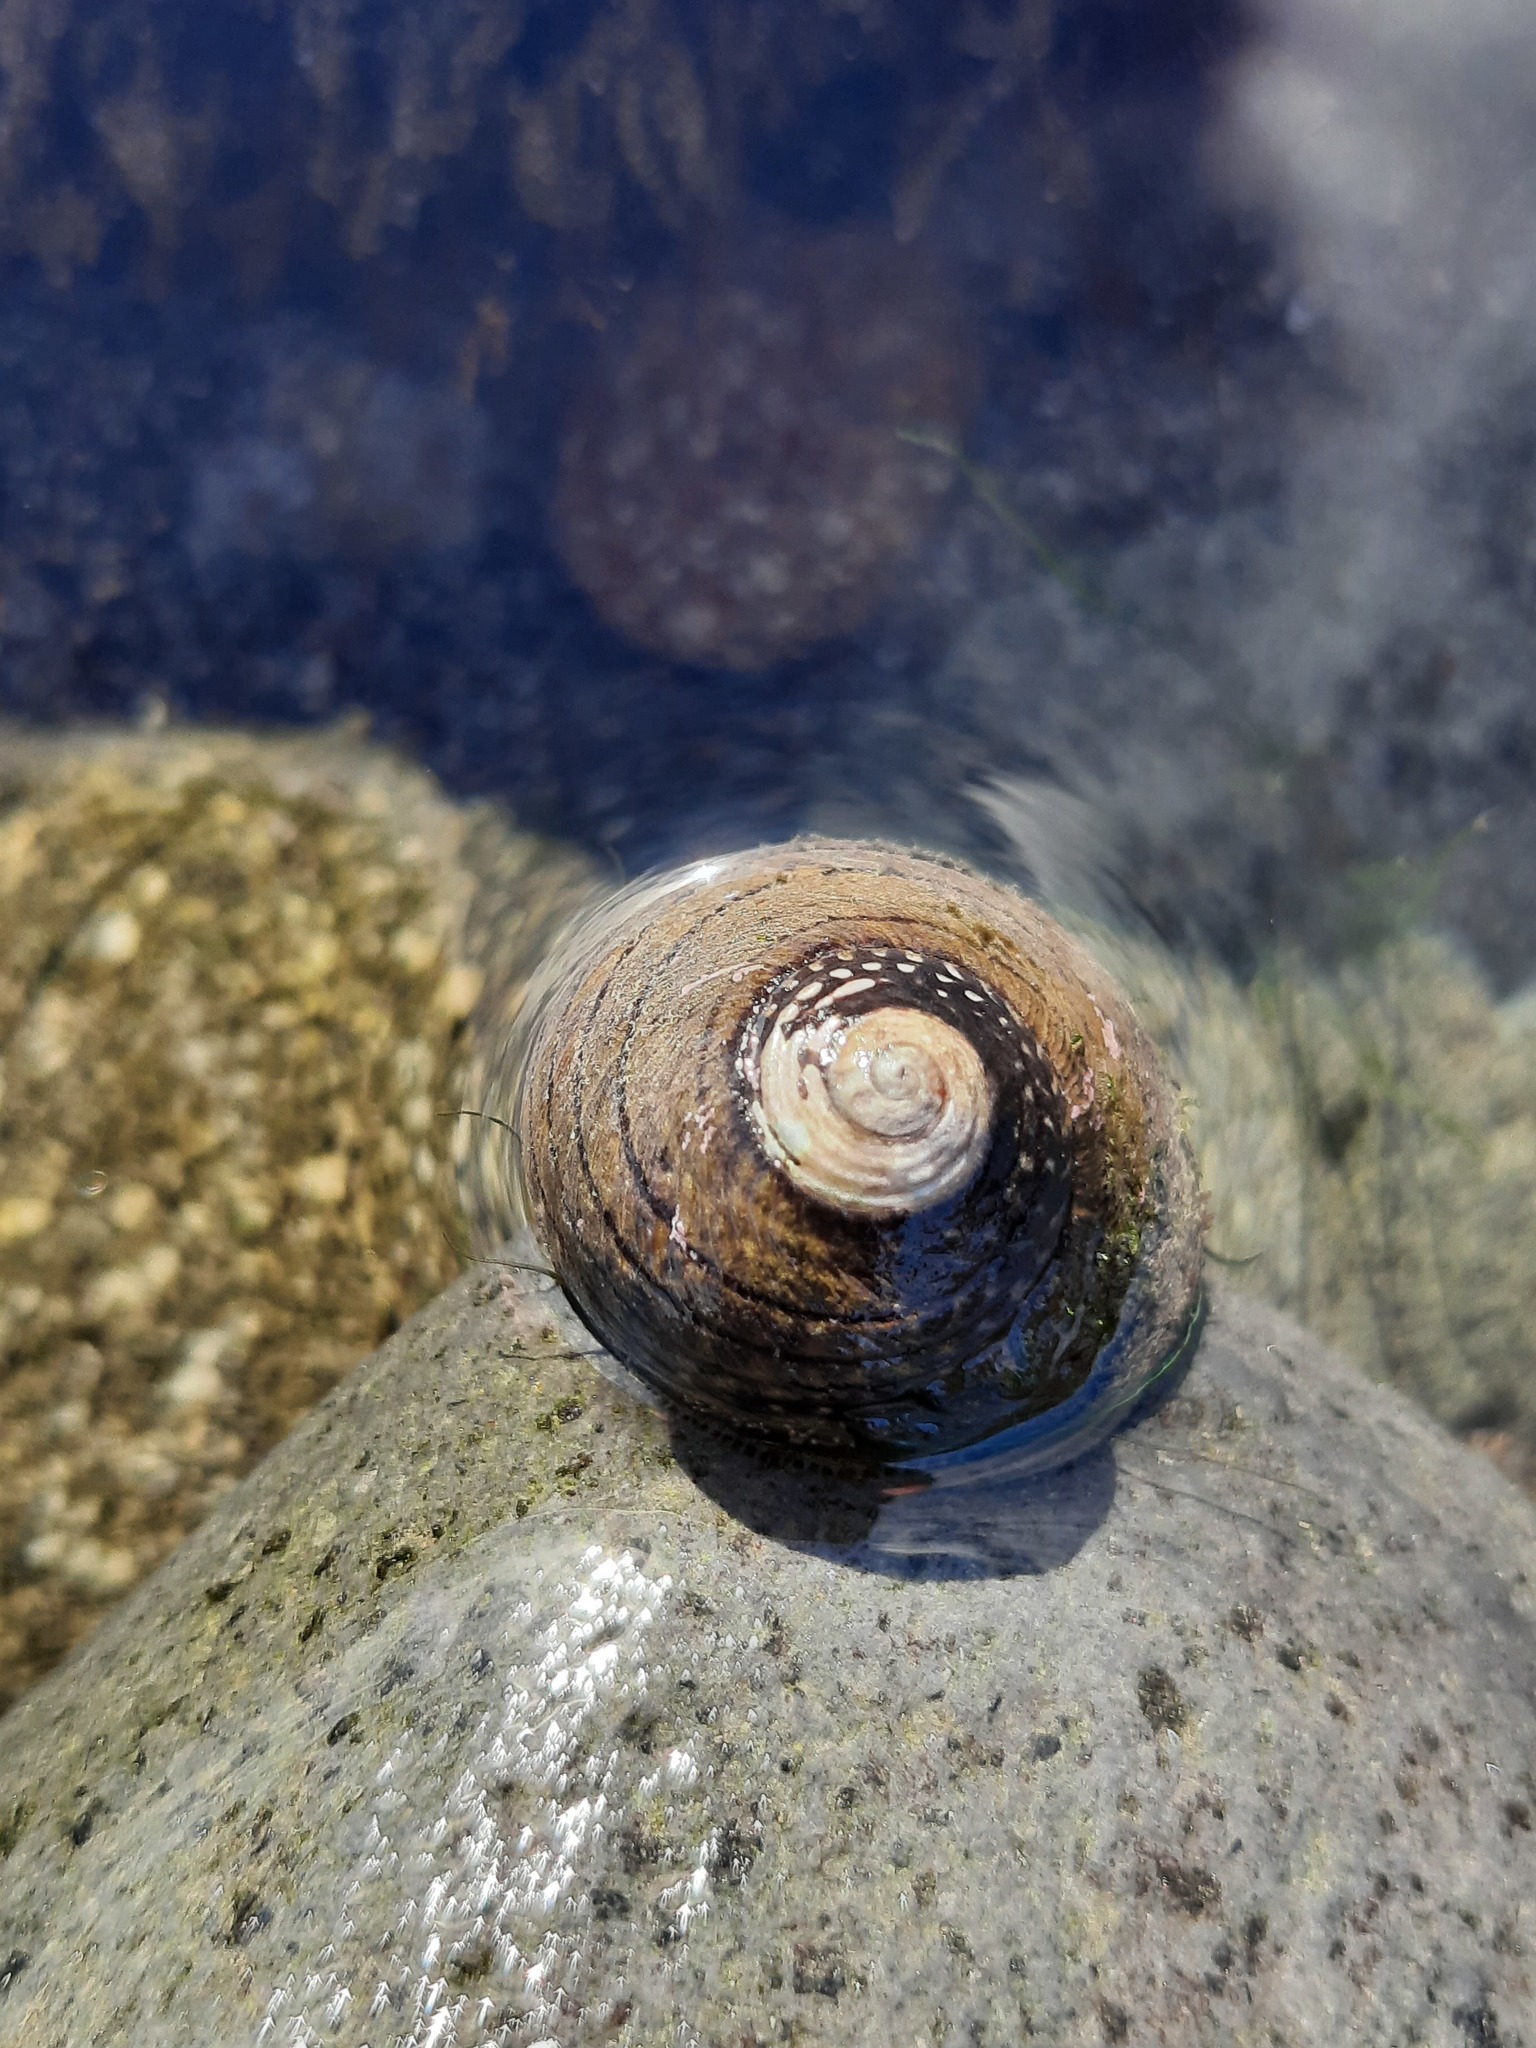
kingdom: Animalia
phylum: Mollusca
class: Gastropoda
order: Trochida
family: Trochidae
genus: Diloma
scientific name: Diloma aethiops
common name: Scorched monodont
